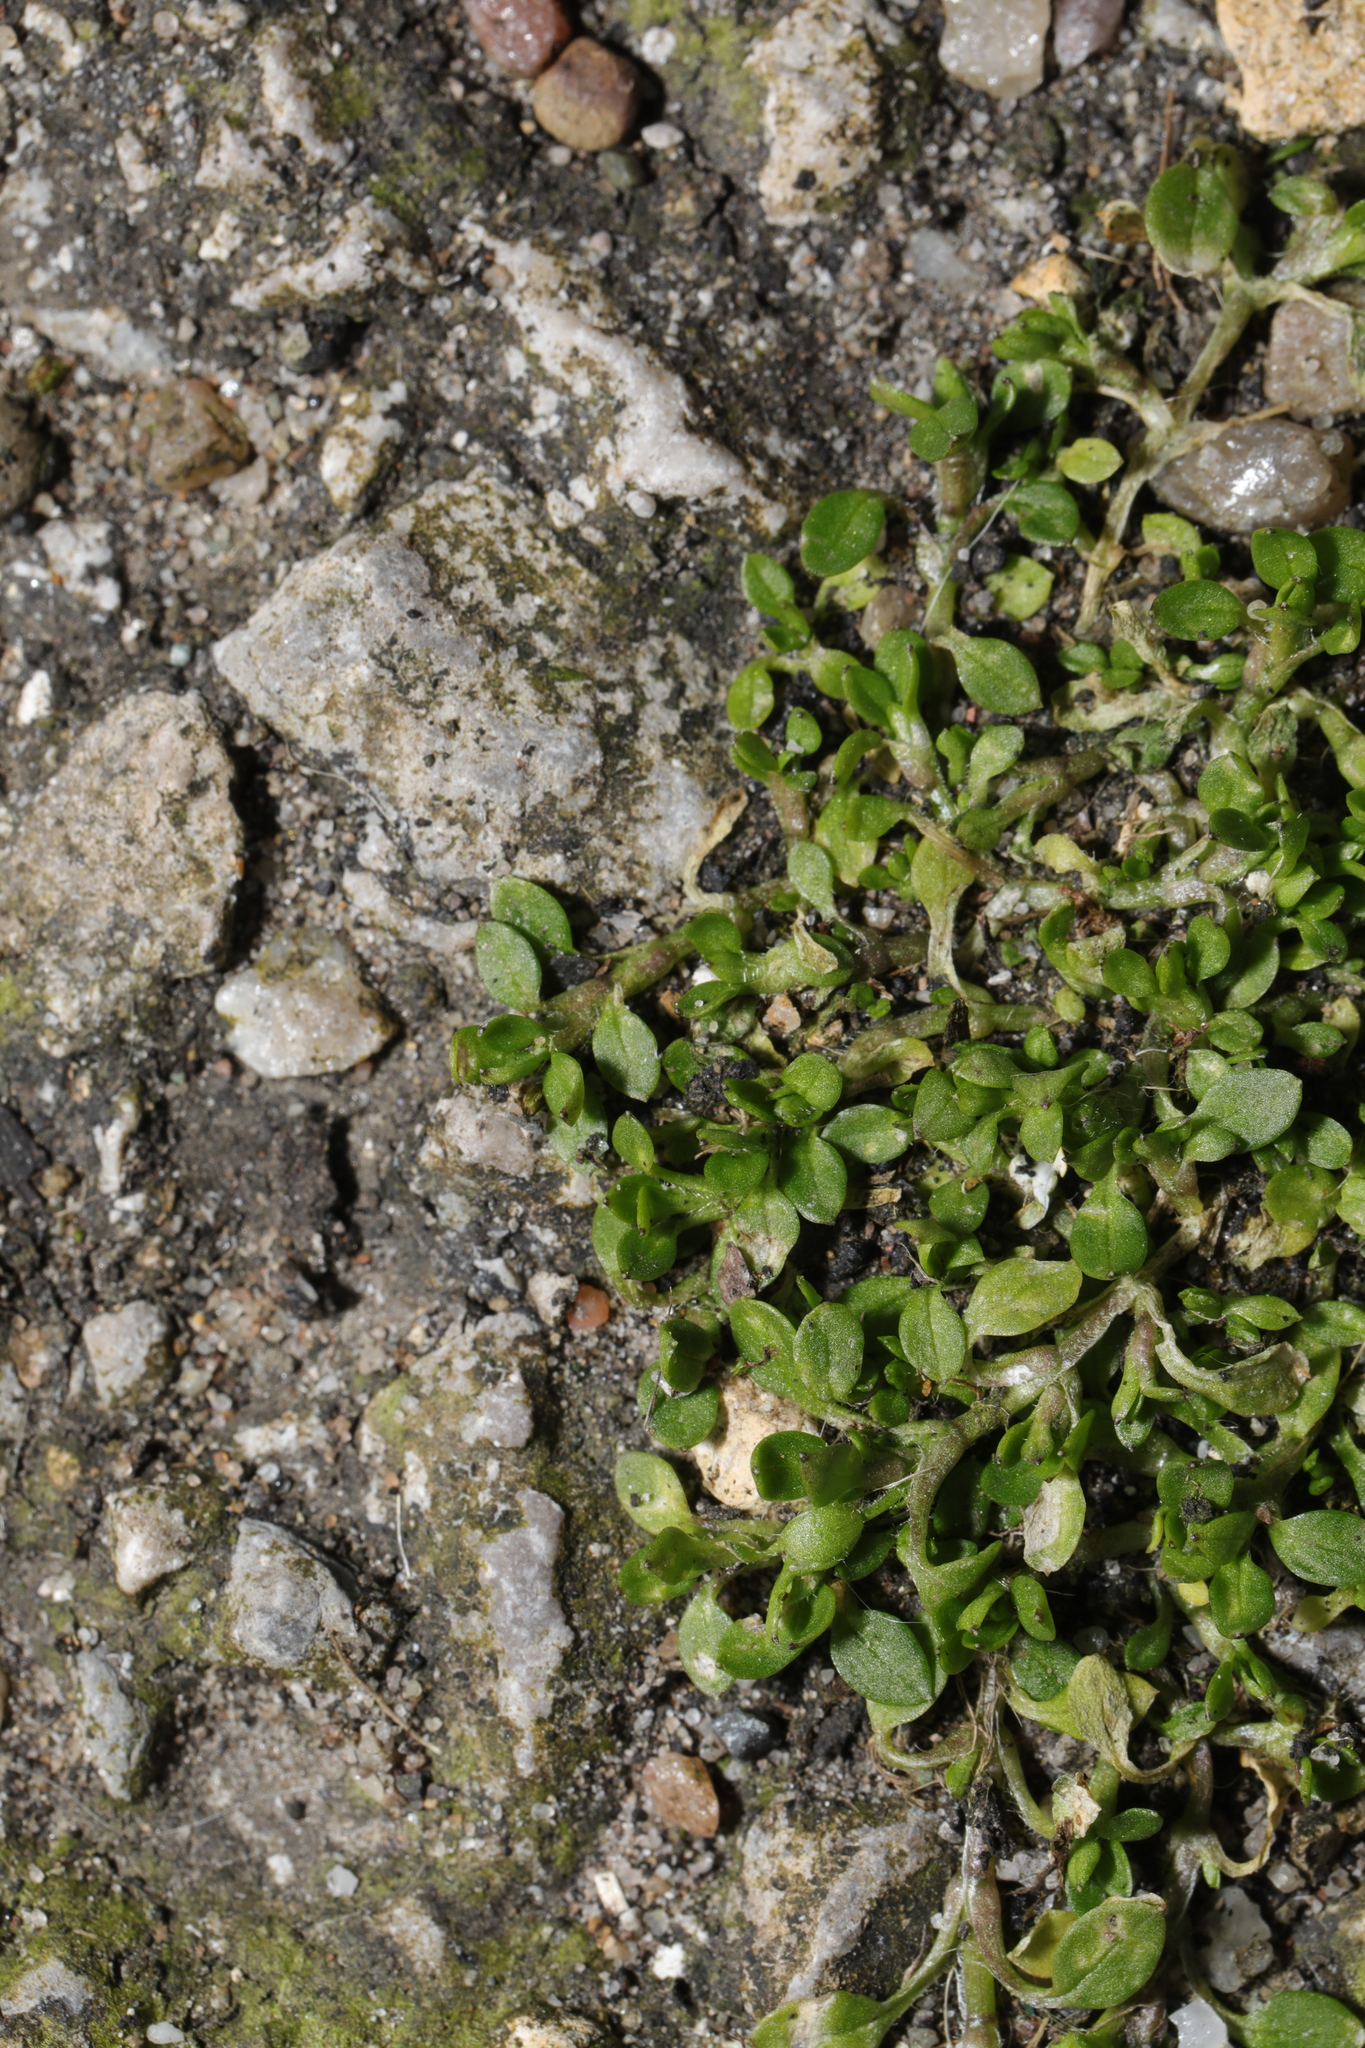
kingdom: Plantae
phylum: Tracheophyta
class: Magnoliopsida
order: Caryophyllales
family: Caryophyllaceae
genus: Stellaria
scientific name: Stellaria media
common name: Common chickweed
